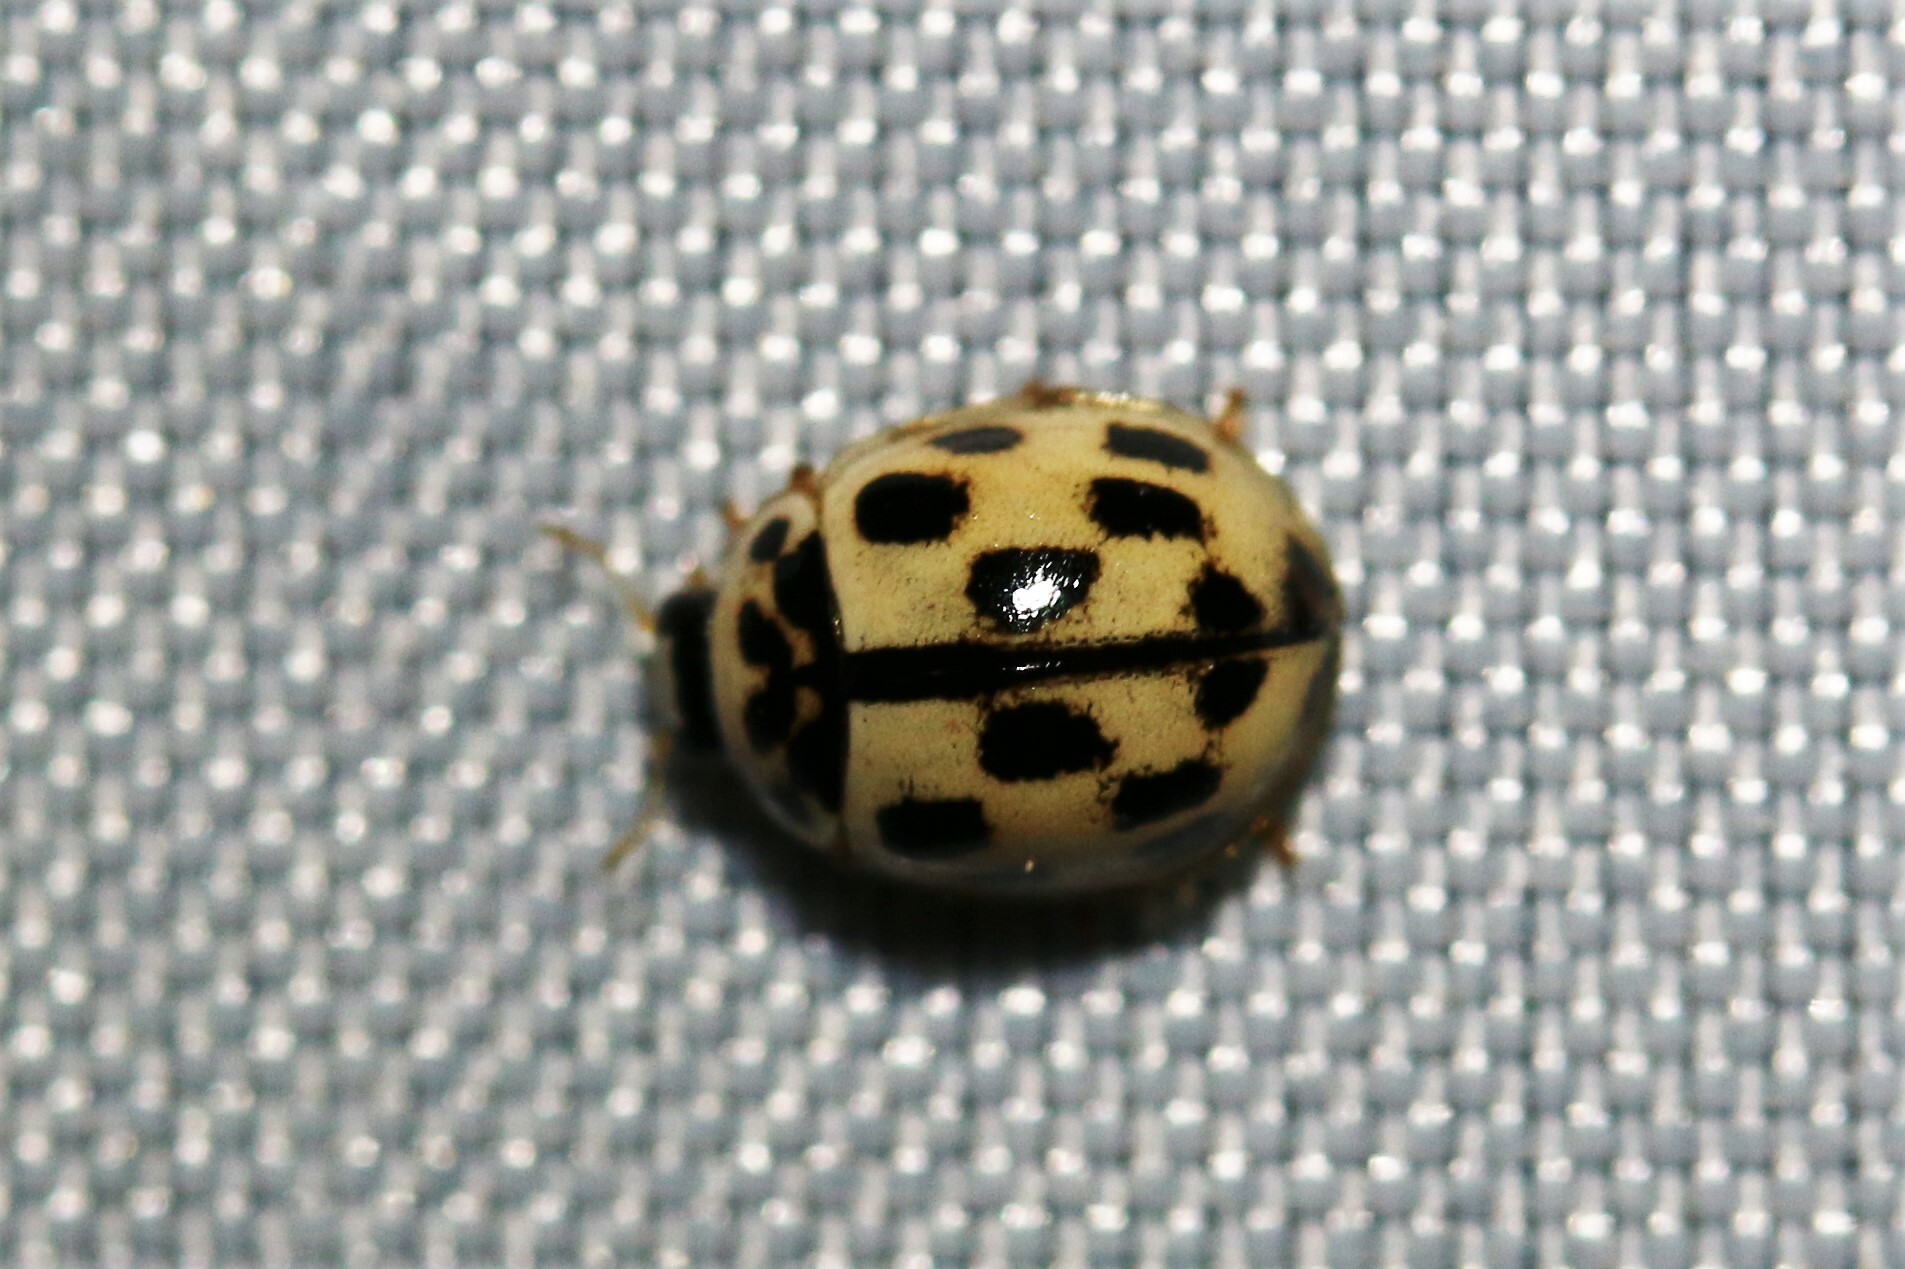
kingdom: Animalia
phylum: Arthropoda
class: Insecta
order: Coleoptera
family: Coccinellidae
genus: Propylaea
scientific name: Propylaea quatuordecimpunctata
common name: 14-spotted ladybird beetle
